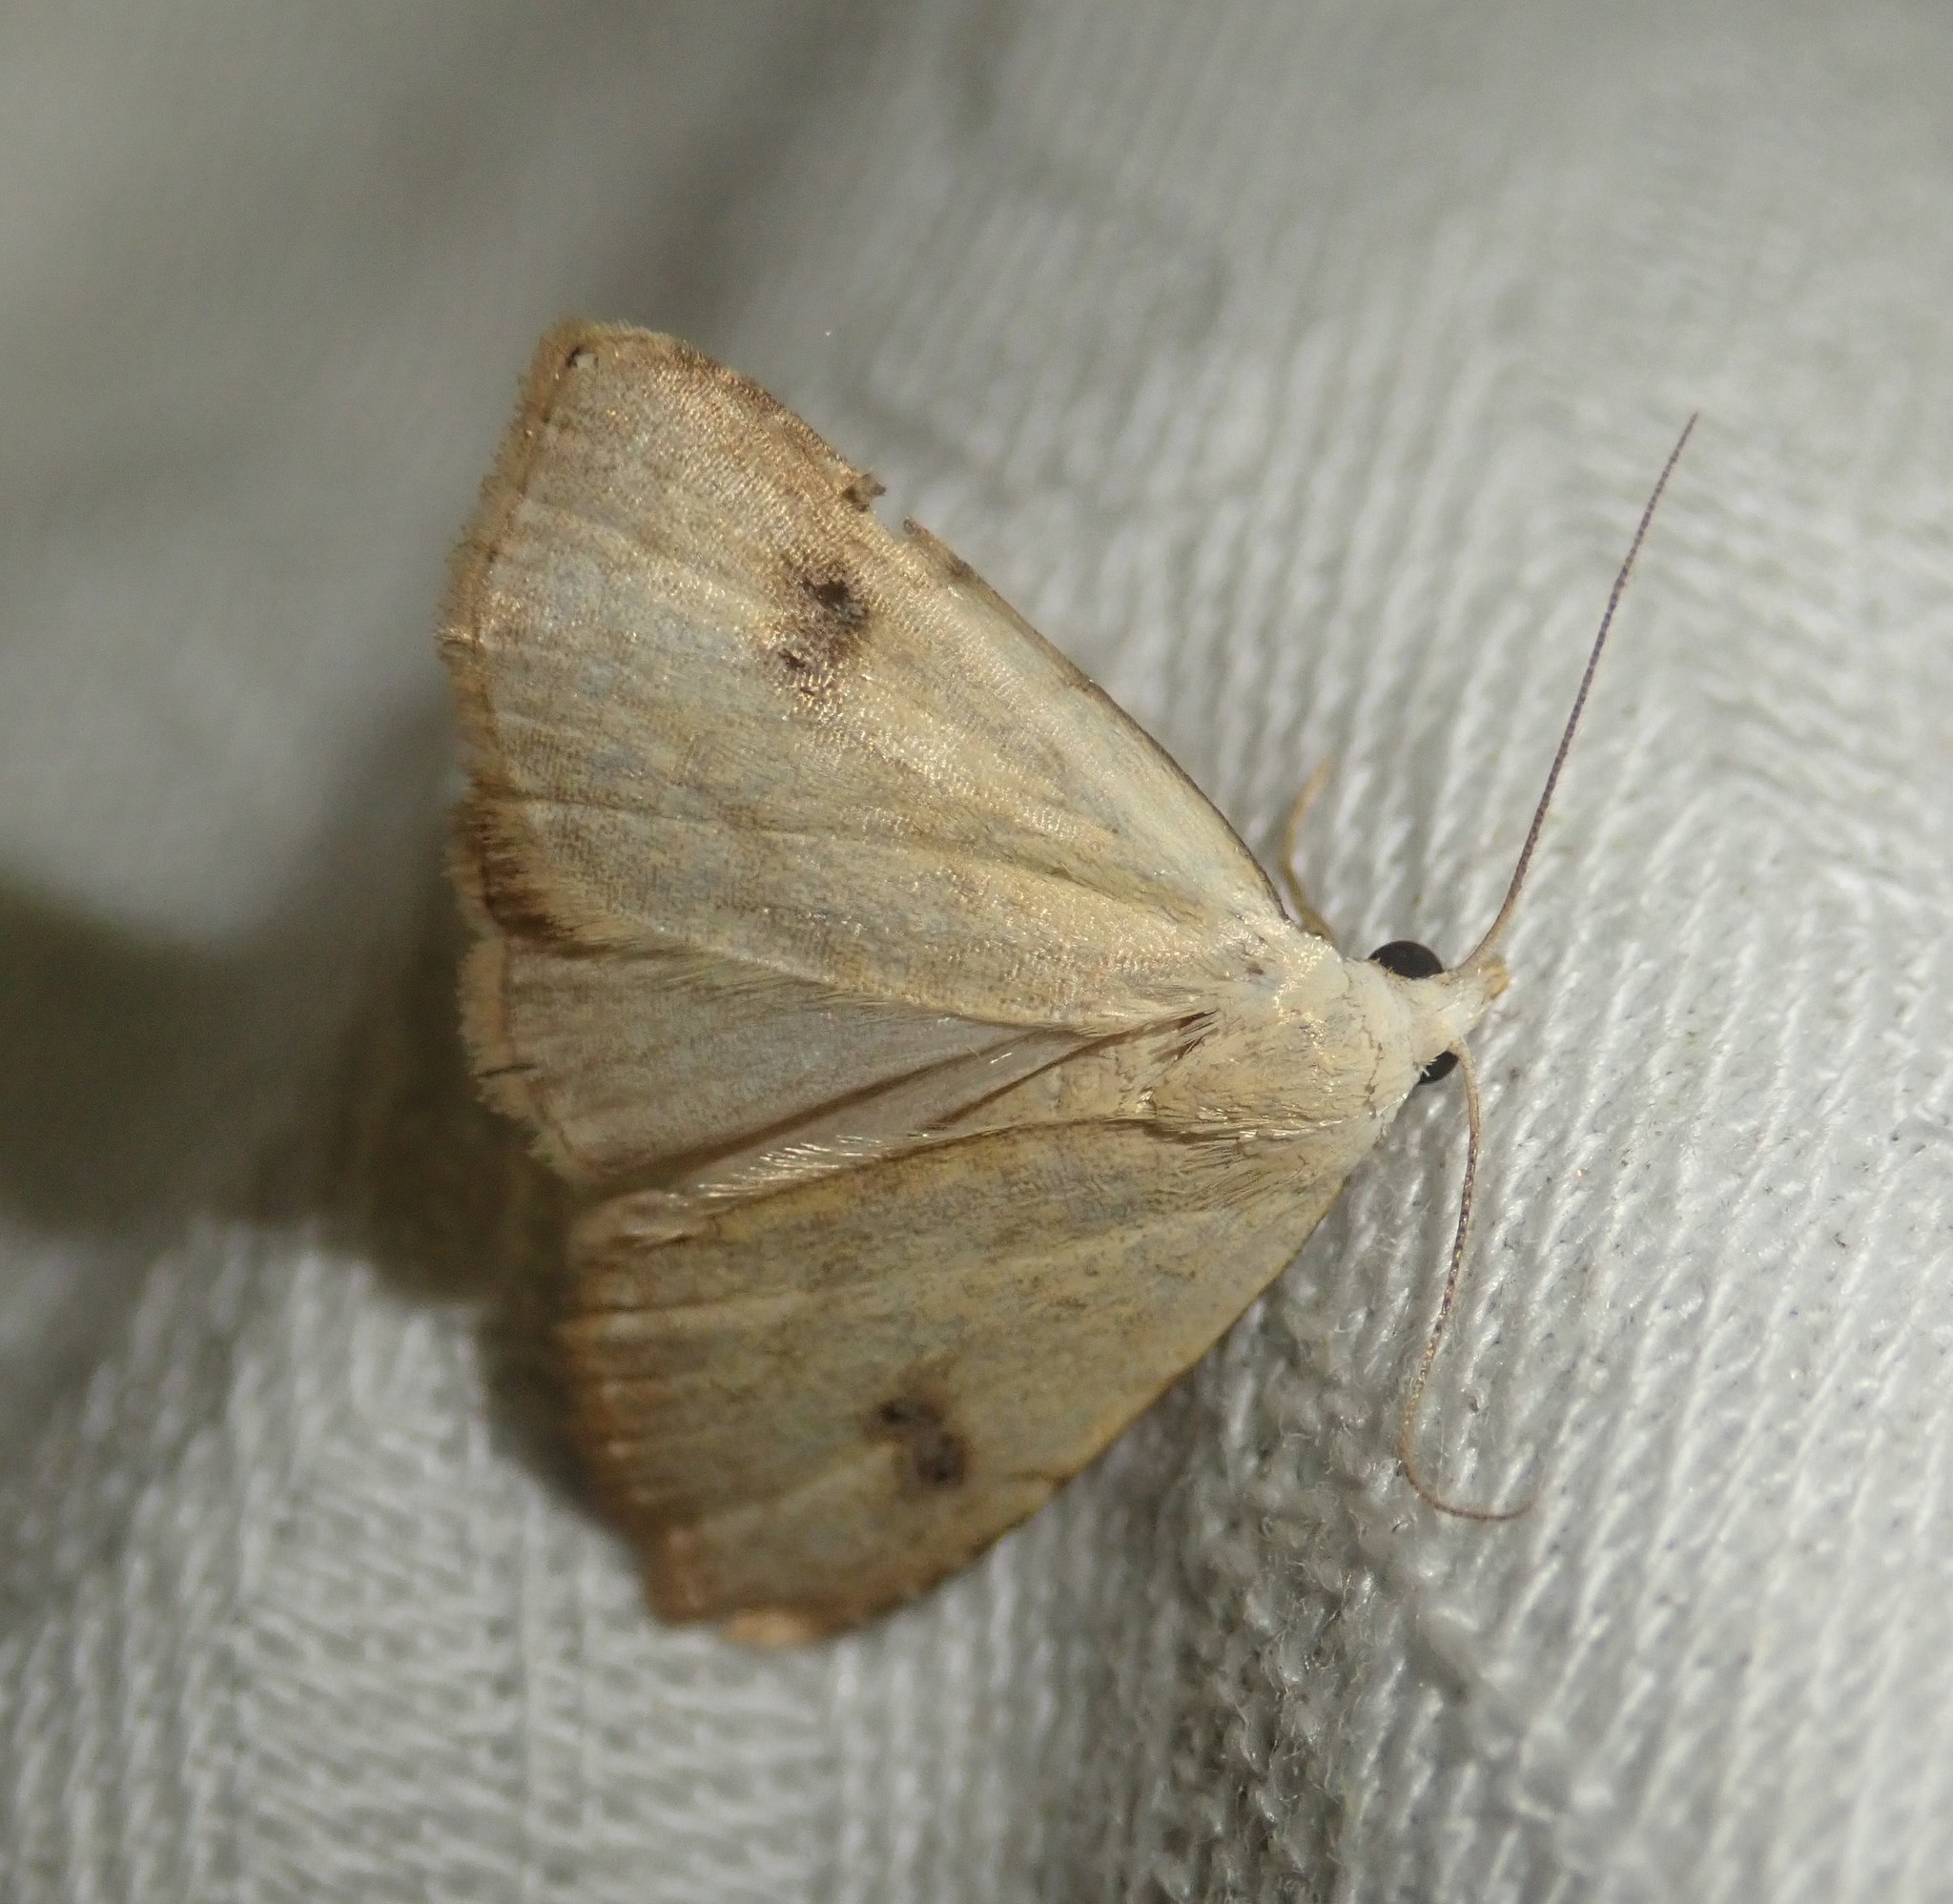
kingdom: Animalia
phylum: Arthropoda
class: Insecta
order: Lepidoptera
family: Erebidae
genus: Rivula
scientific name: Rivula sericealis
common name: Straw dot
